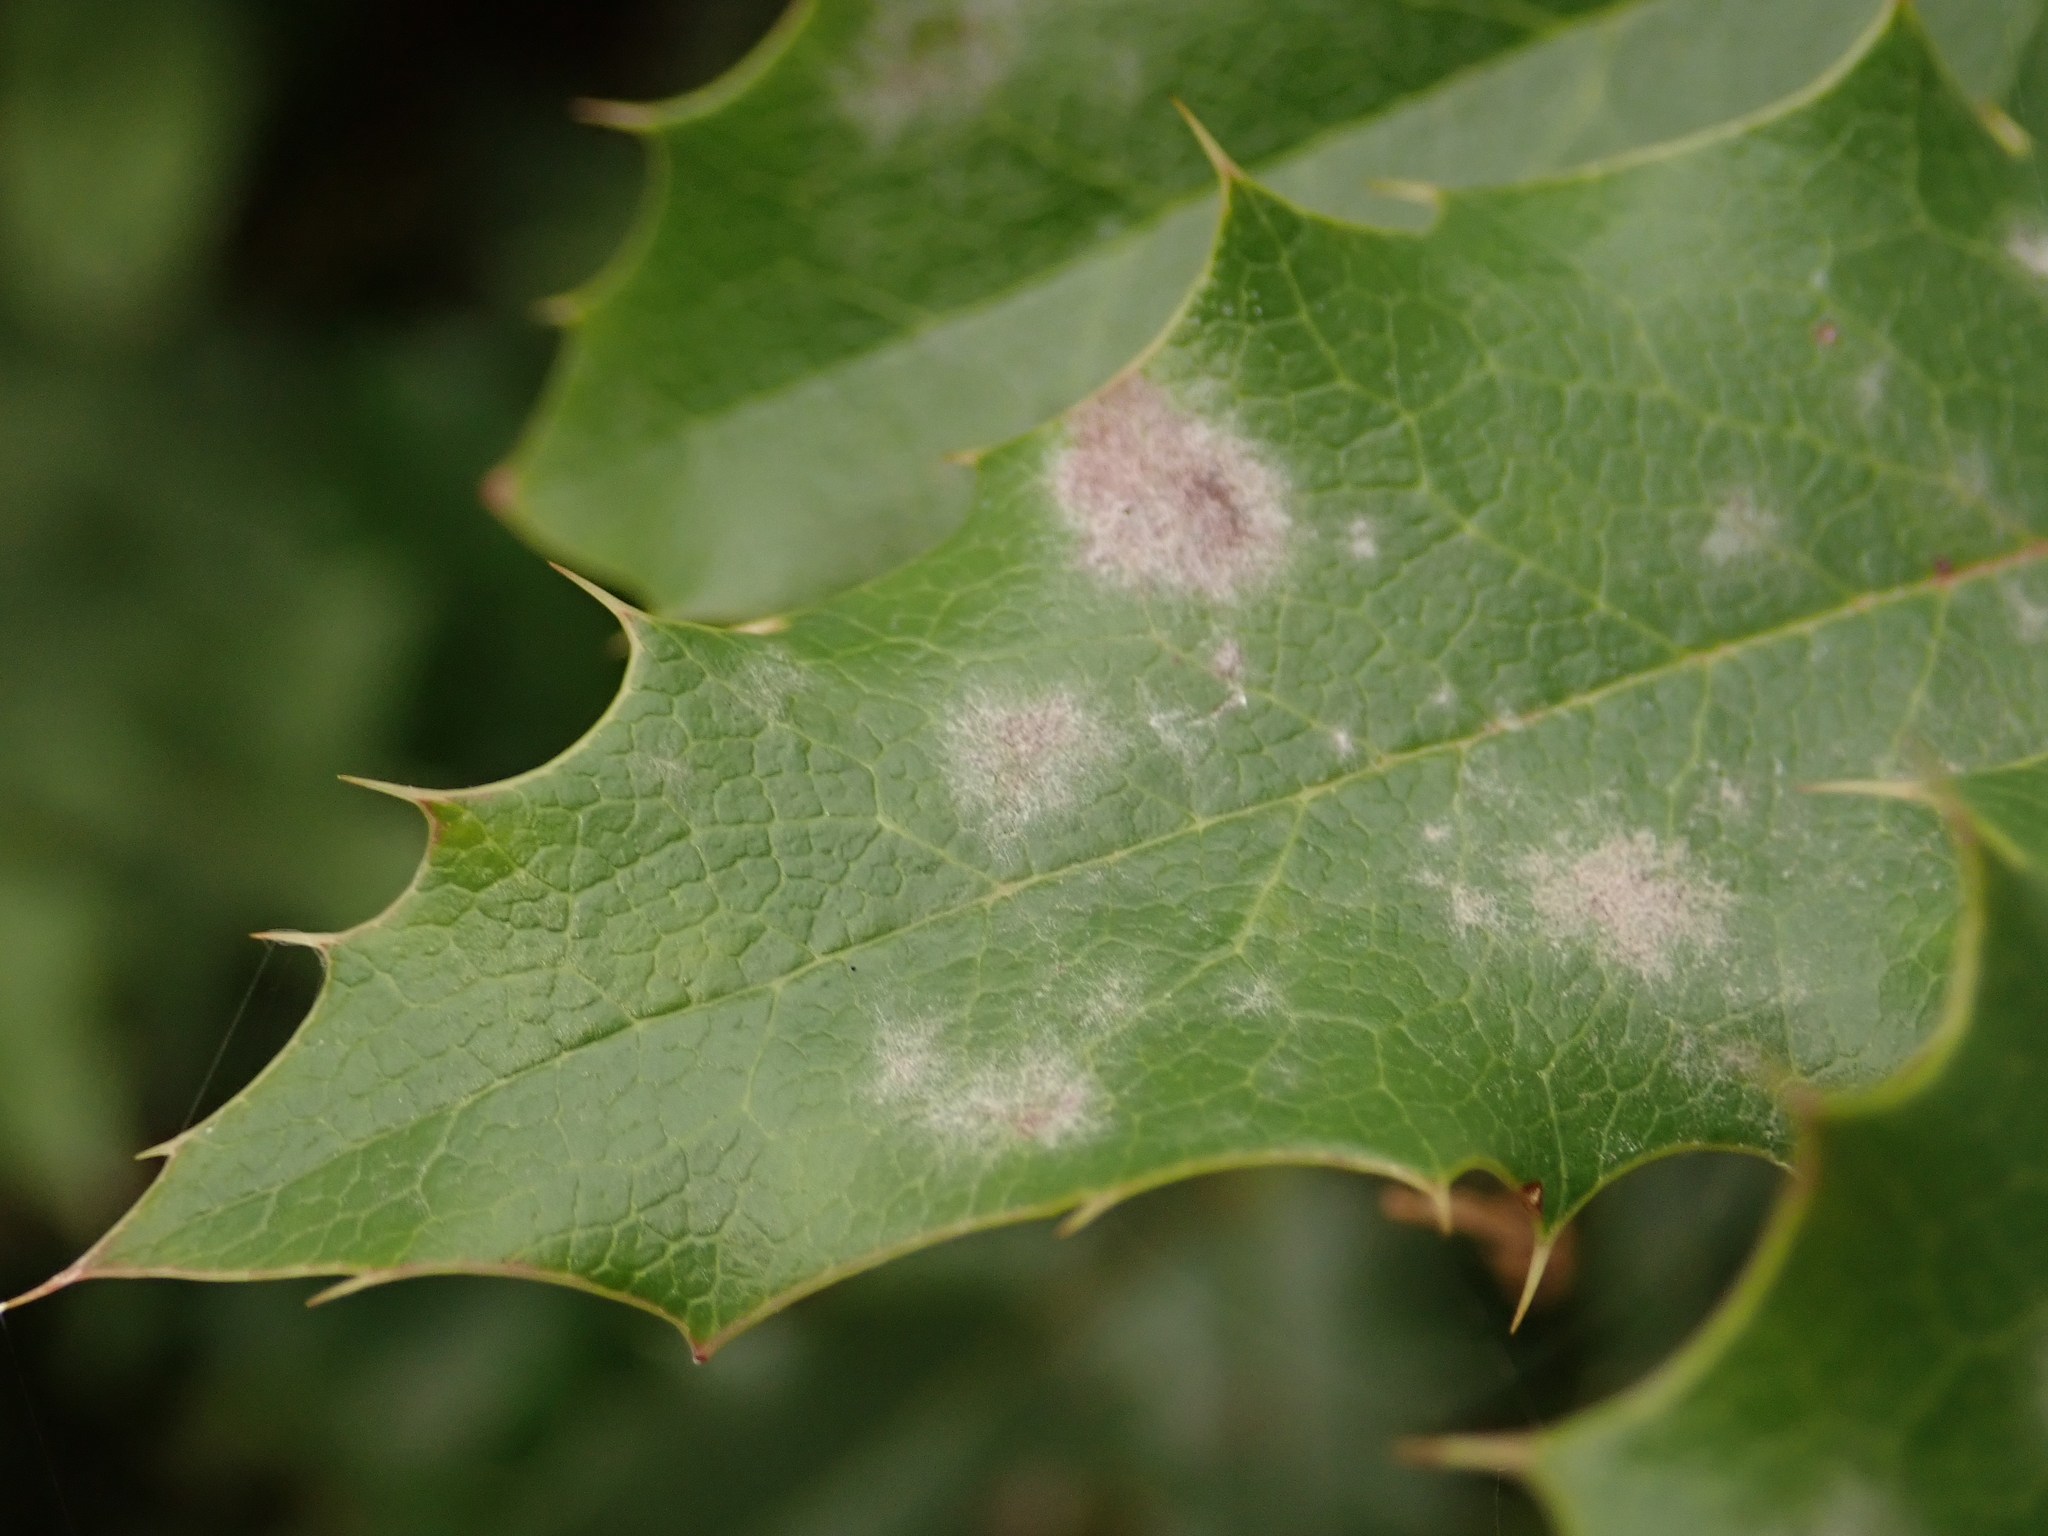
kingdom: Fungi
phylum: Ascomycota
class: Leotiomycetes
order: Helotiales
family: Erysiphaceae
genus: Erysiphe
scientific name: Erysiphe berberidis
